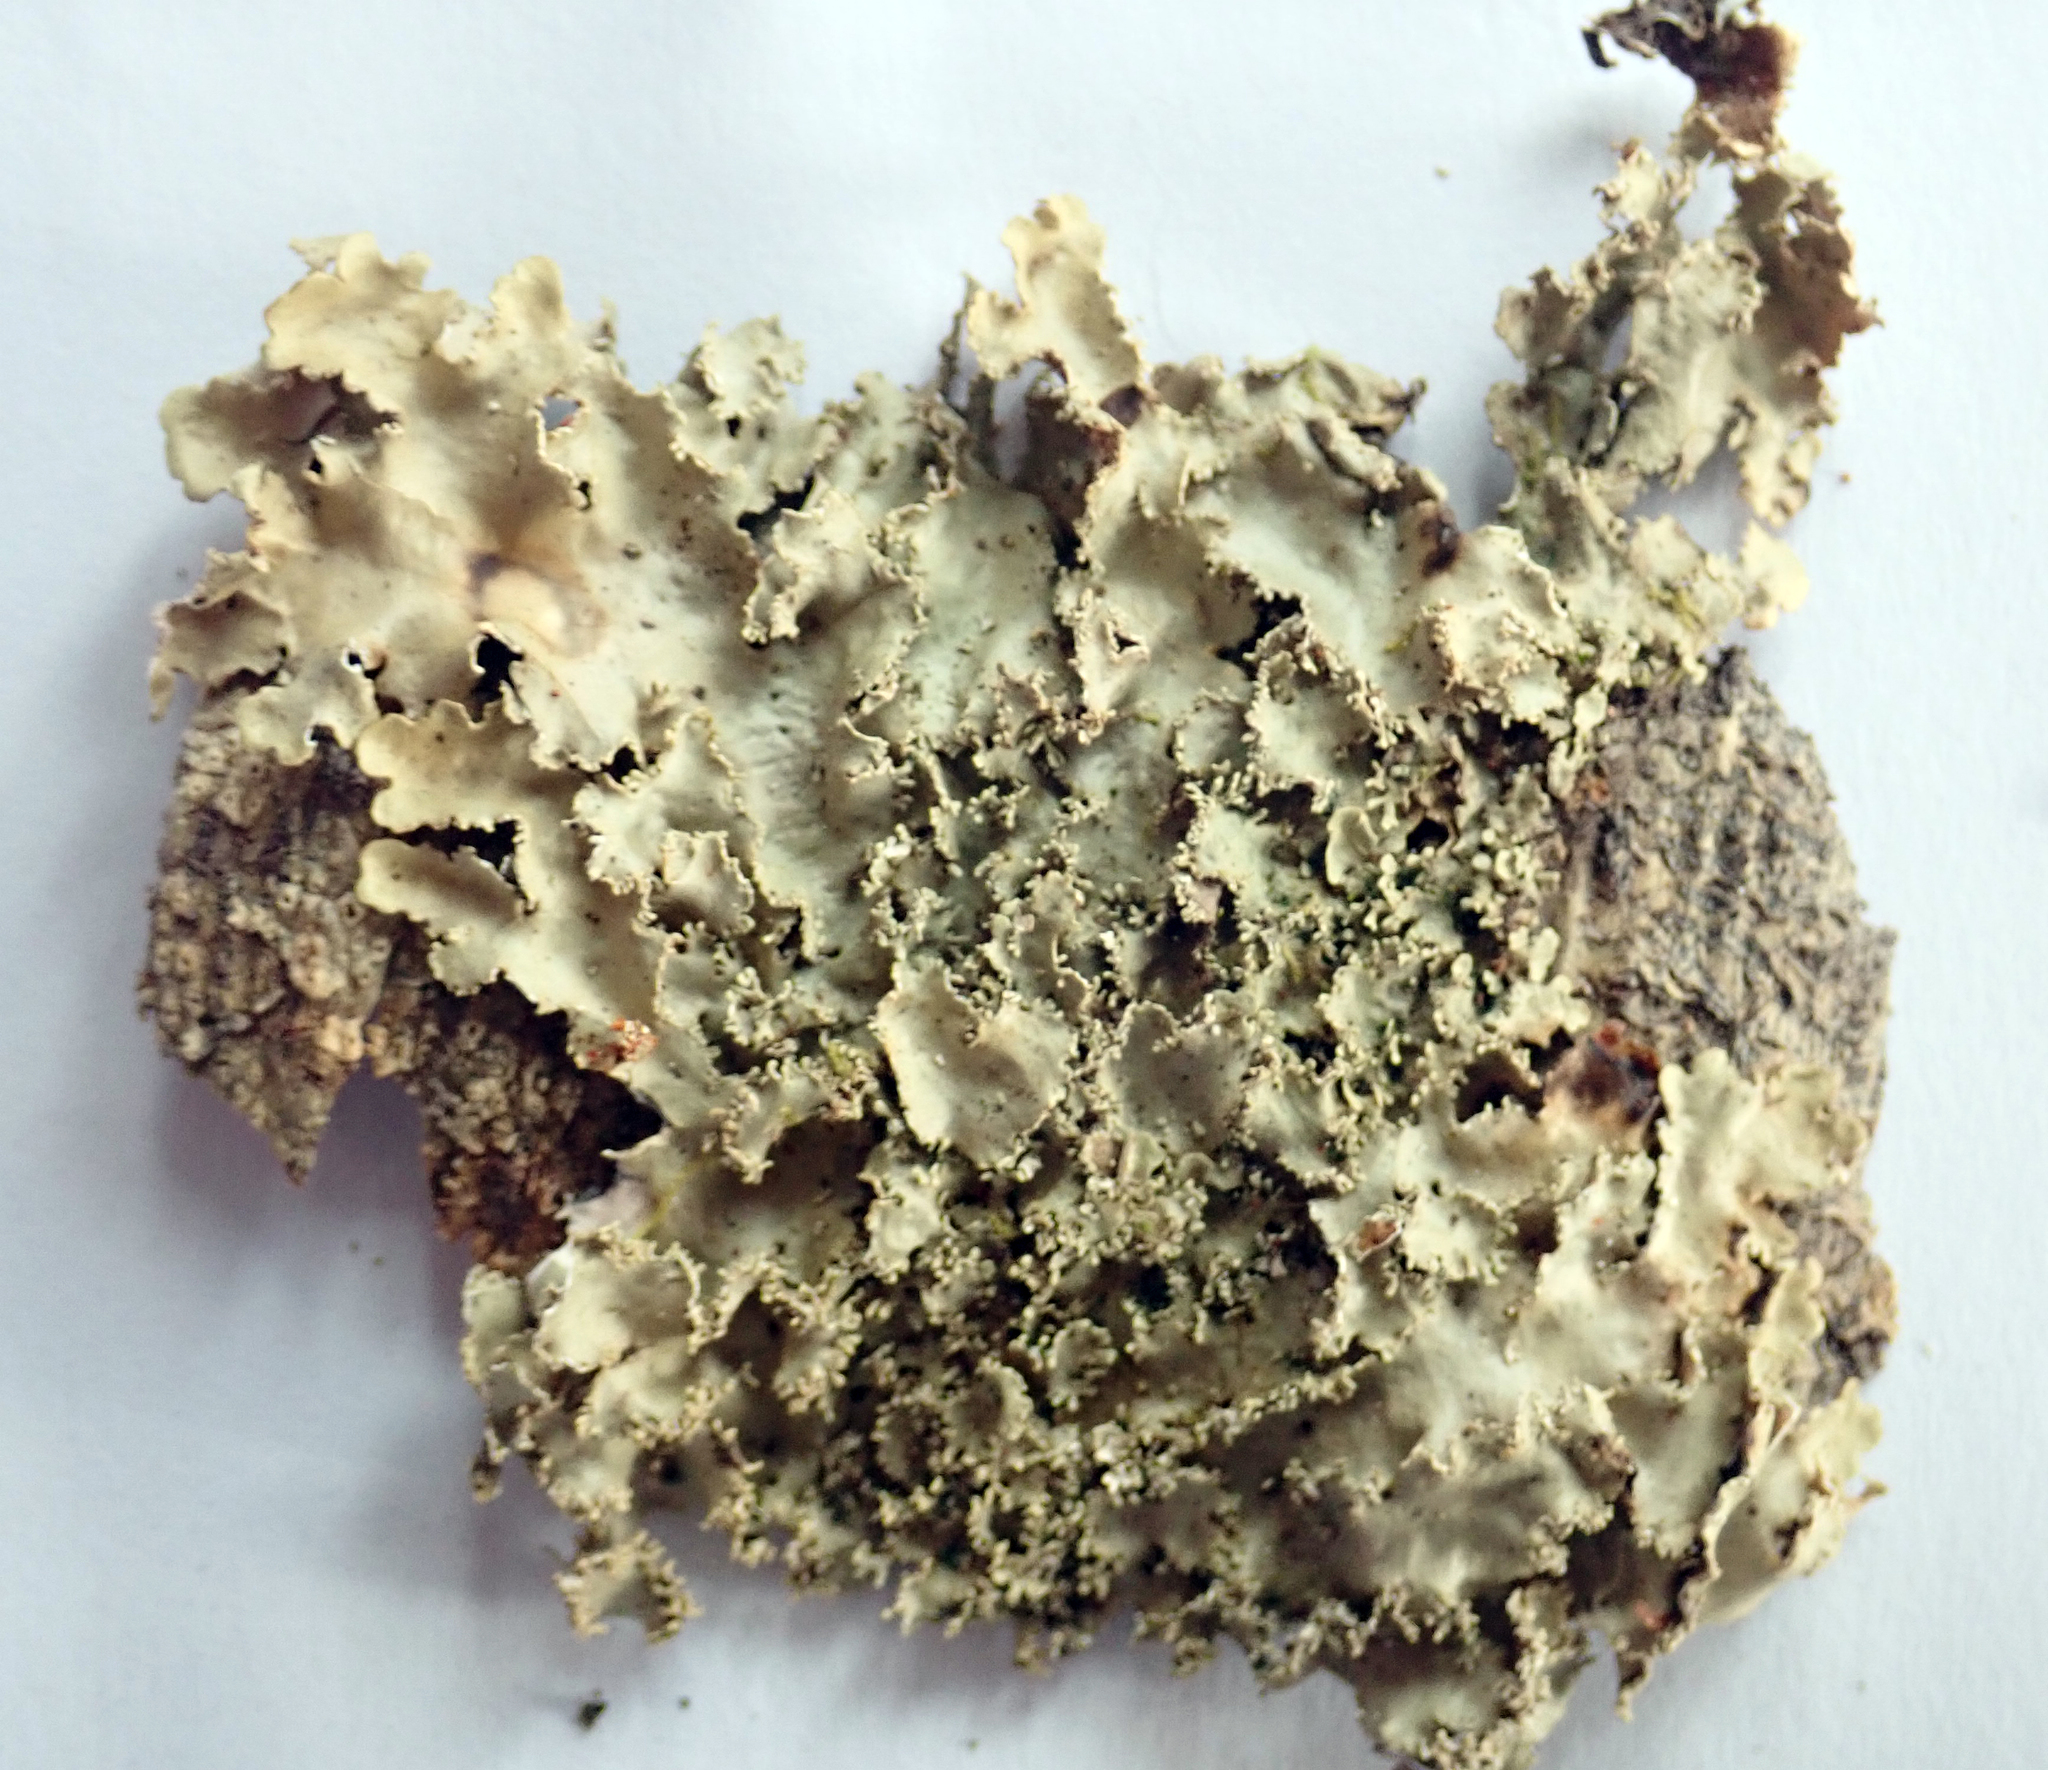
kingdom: Fungi
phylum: Ascomycota
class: Lecanoromycetes
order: Peltigerales
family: Lobariaceae
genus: Pseudocyphellaria
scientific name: Pseudocyphellaria glabra
